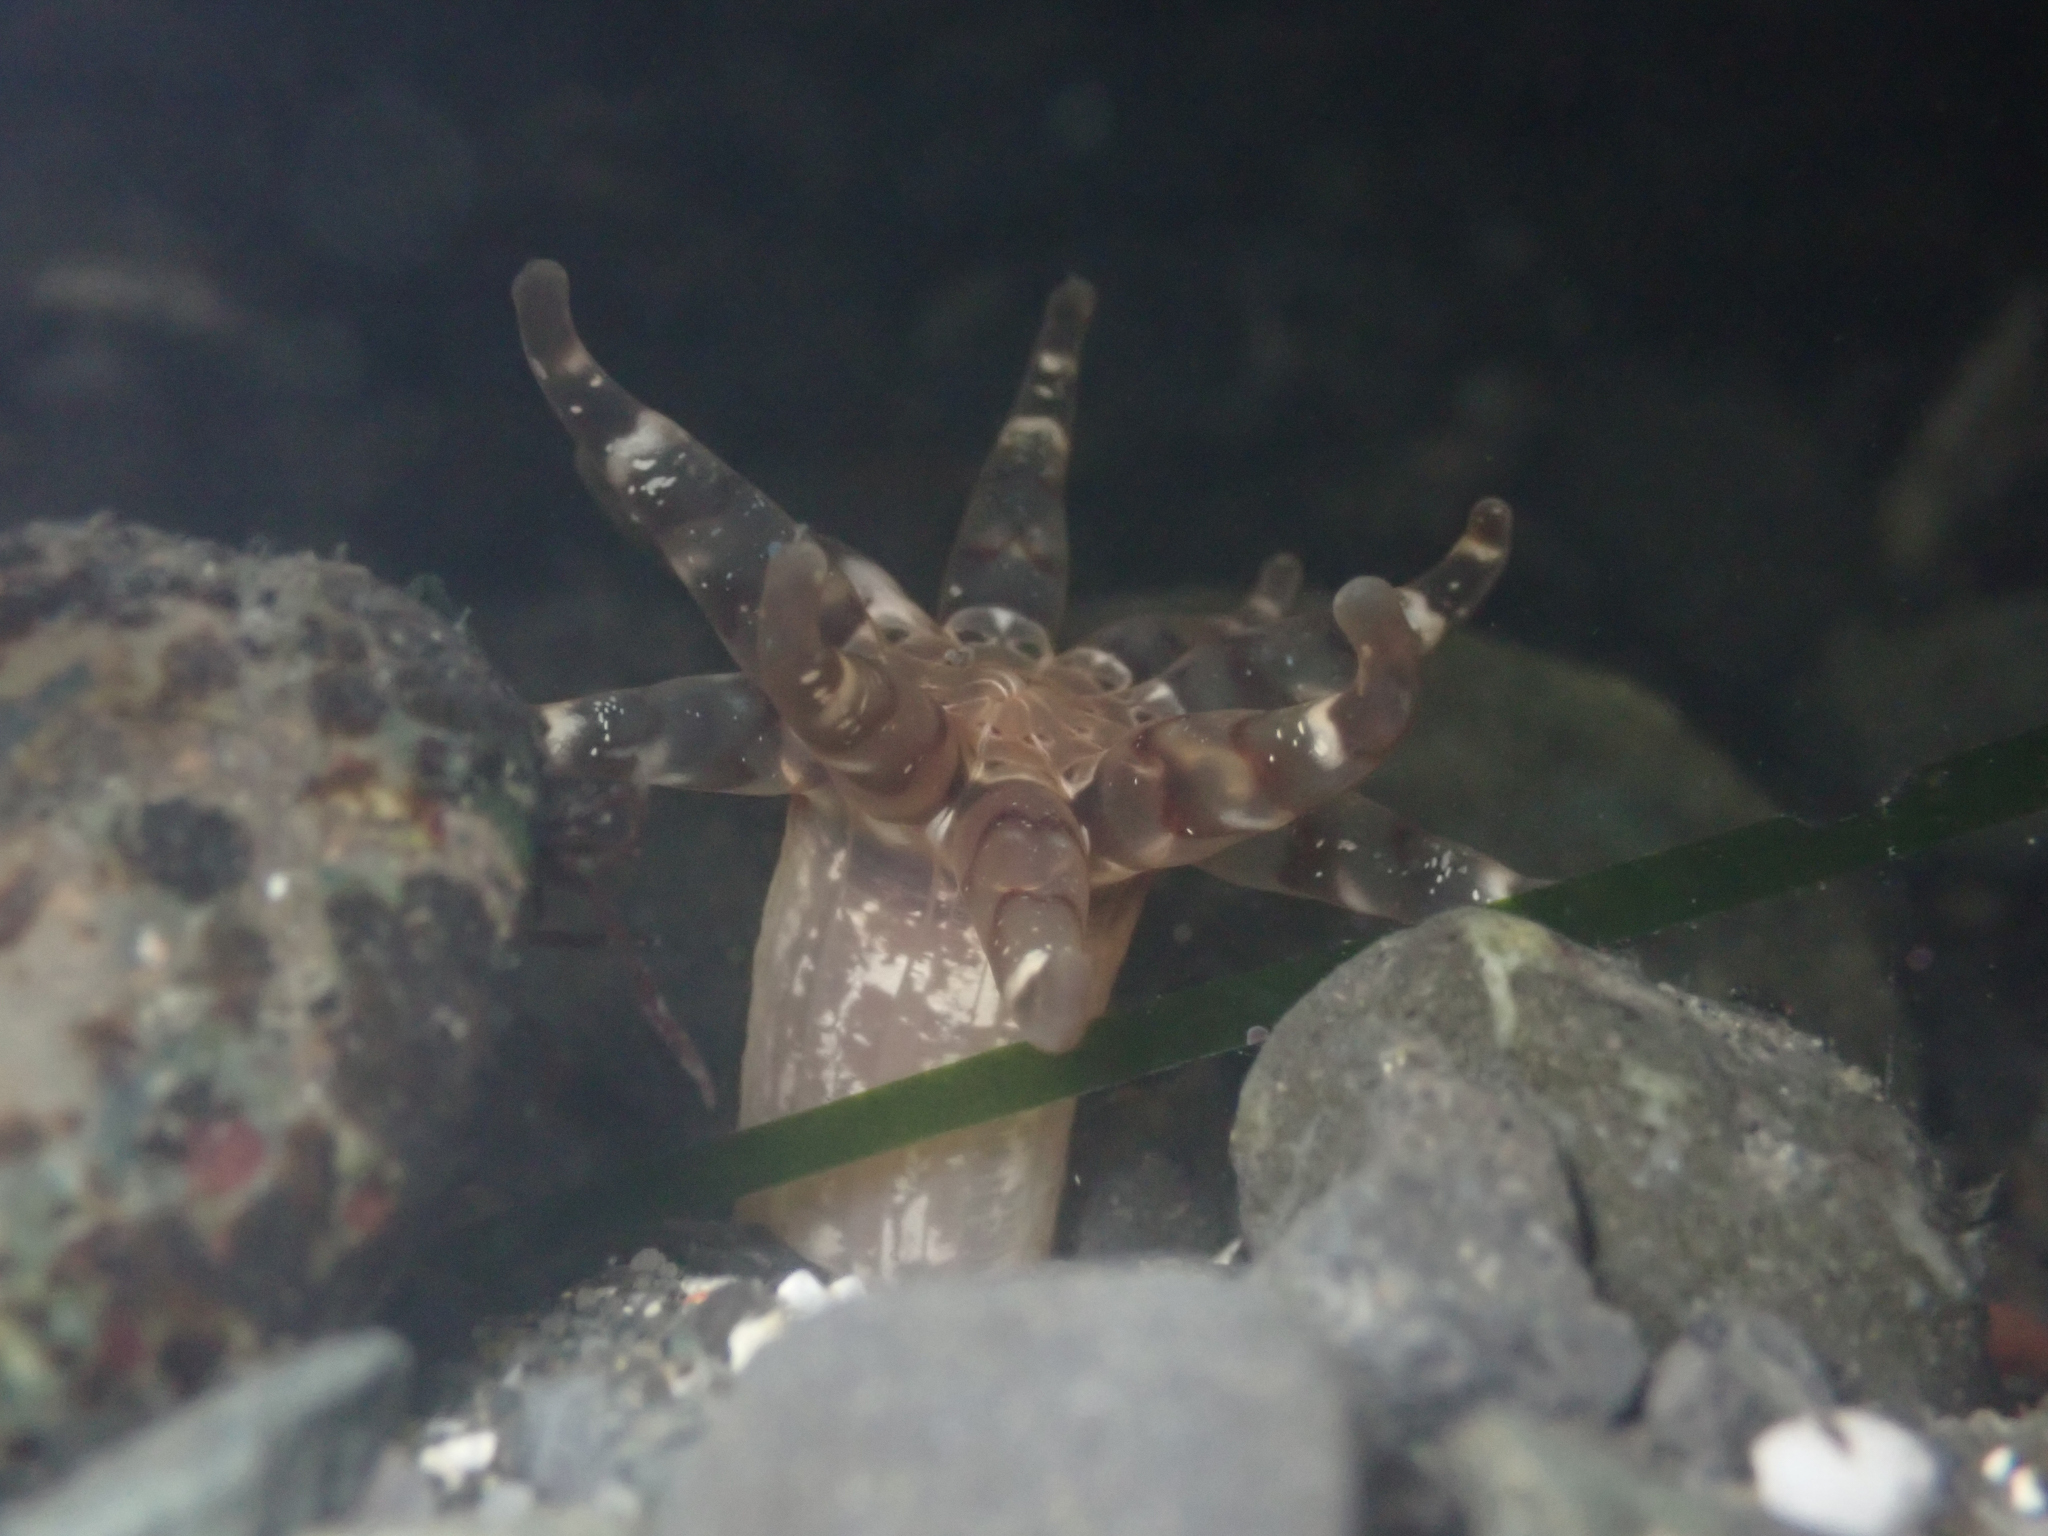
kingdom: Animalia
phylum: Cnidaria
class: Anthozoa
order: Actiniaria
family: Halcampidae
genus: Halcampa
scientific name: Halcampa decemtentaculata
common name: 10-tentacle burrowing anemone
